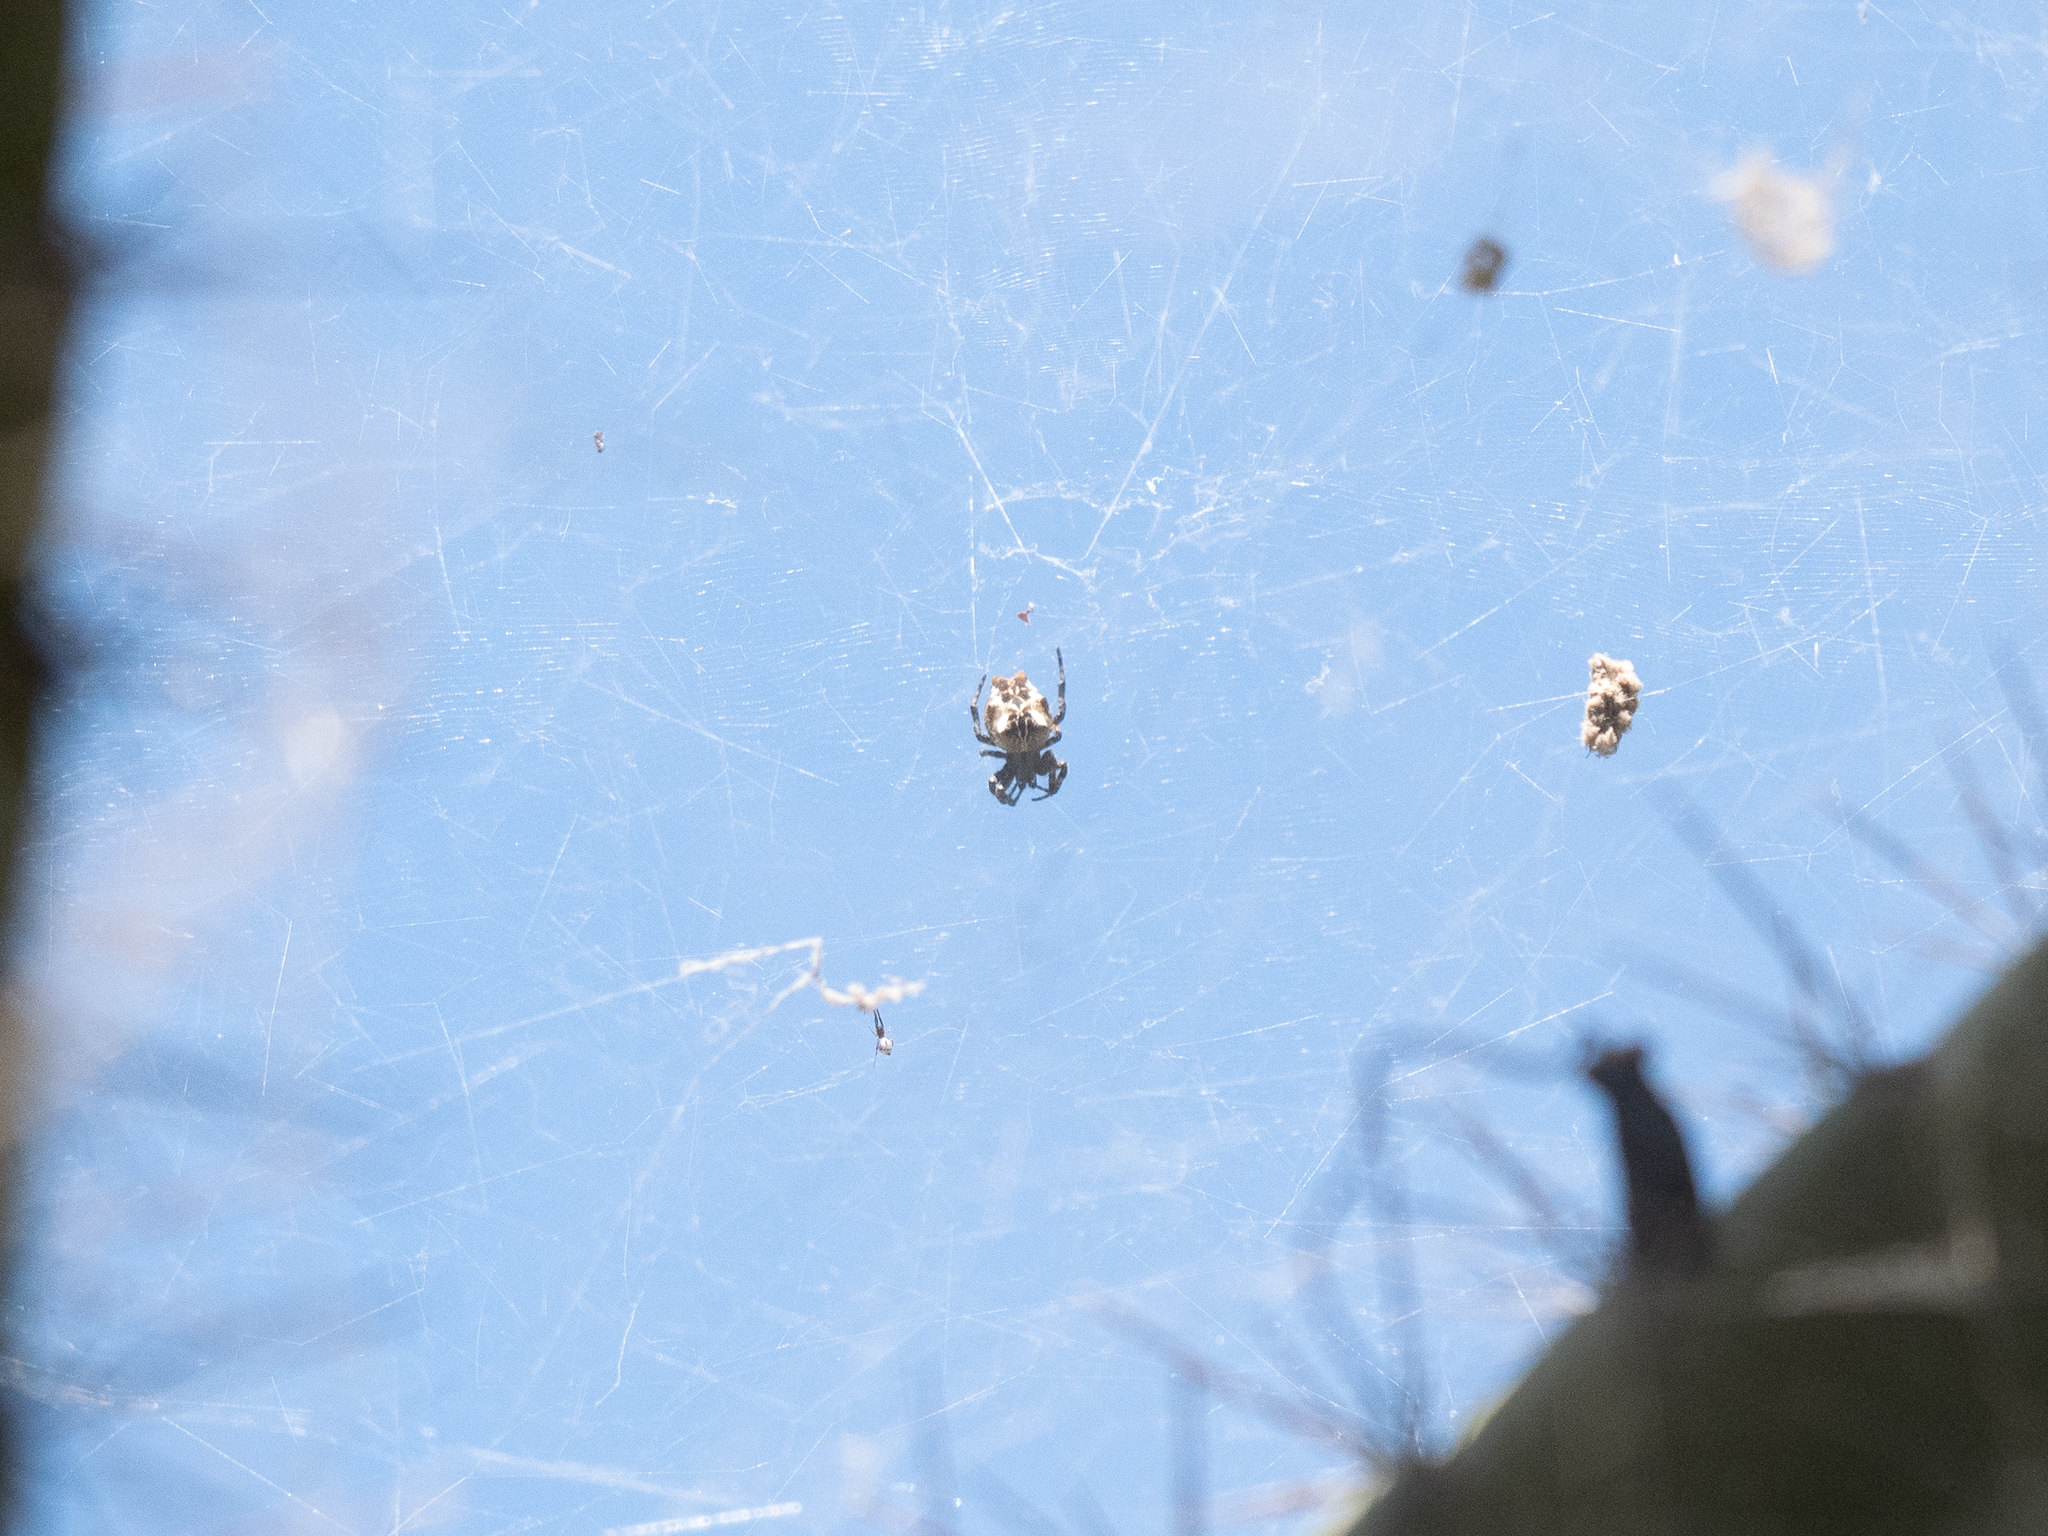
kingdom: Animalia
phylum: Arthropoda
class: Arachnida
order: Araneae
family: Araneidae
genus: Cyrtophora
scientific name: Cyrtophora citricola
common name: Orb weavers
